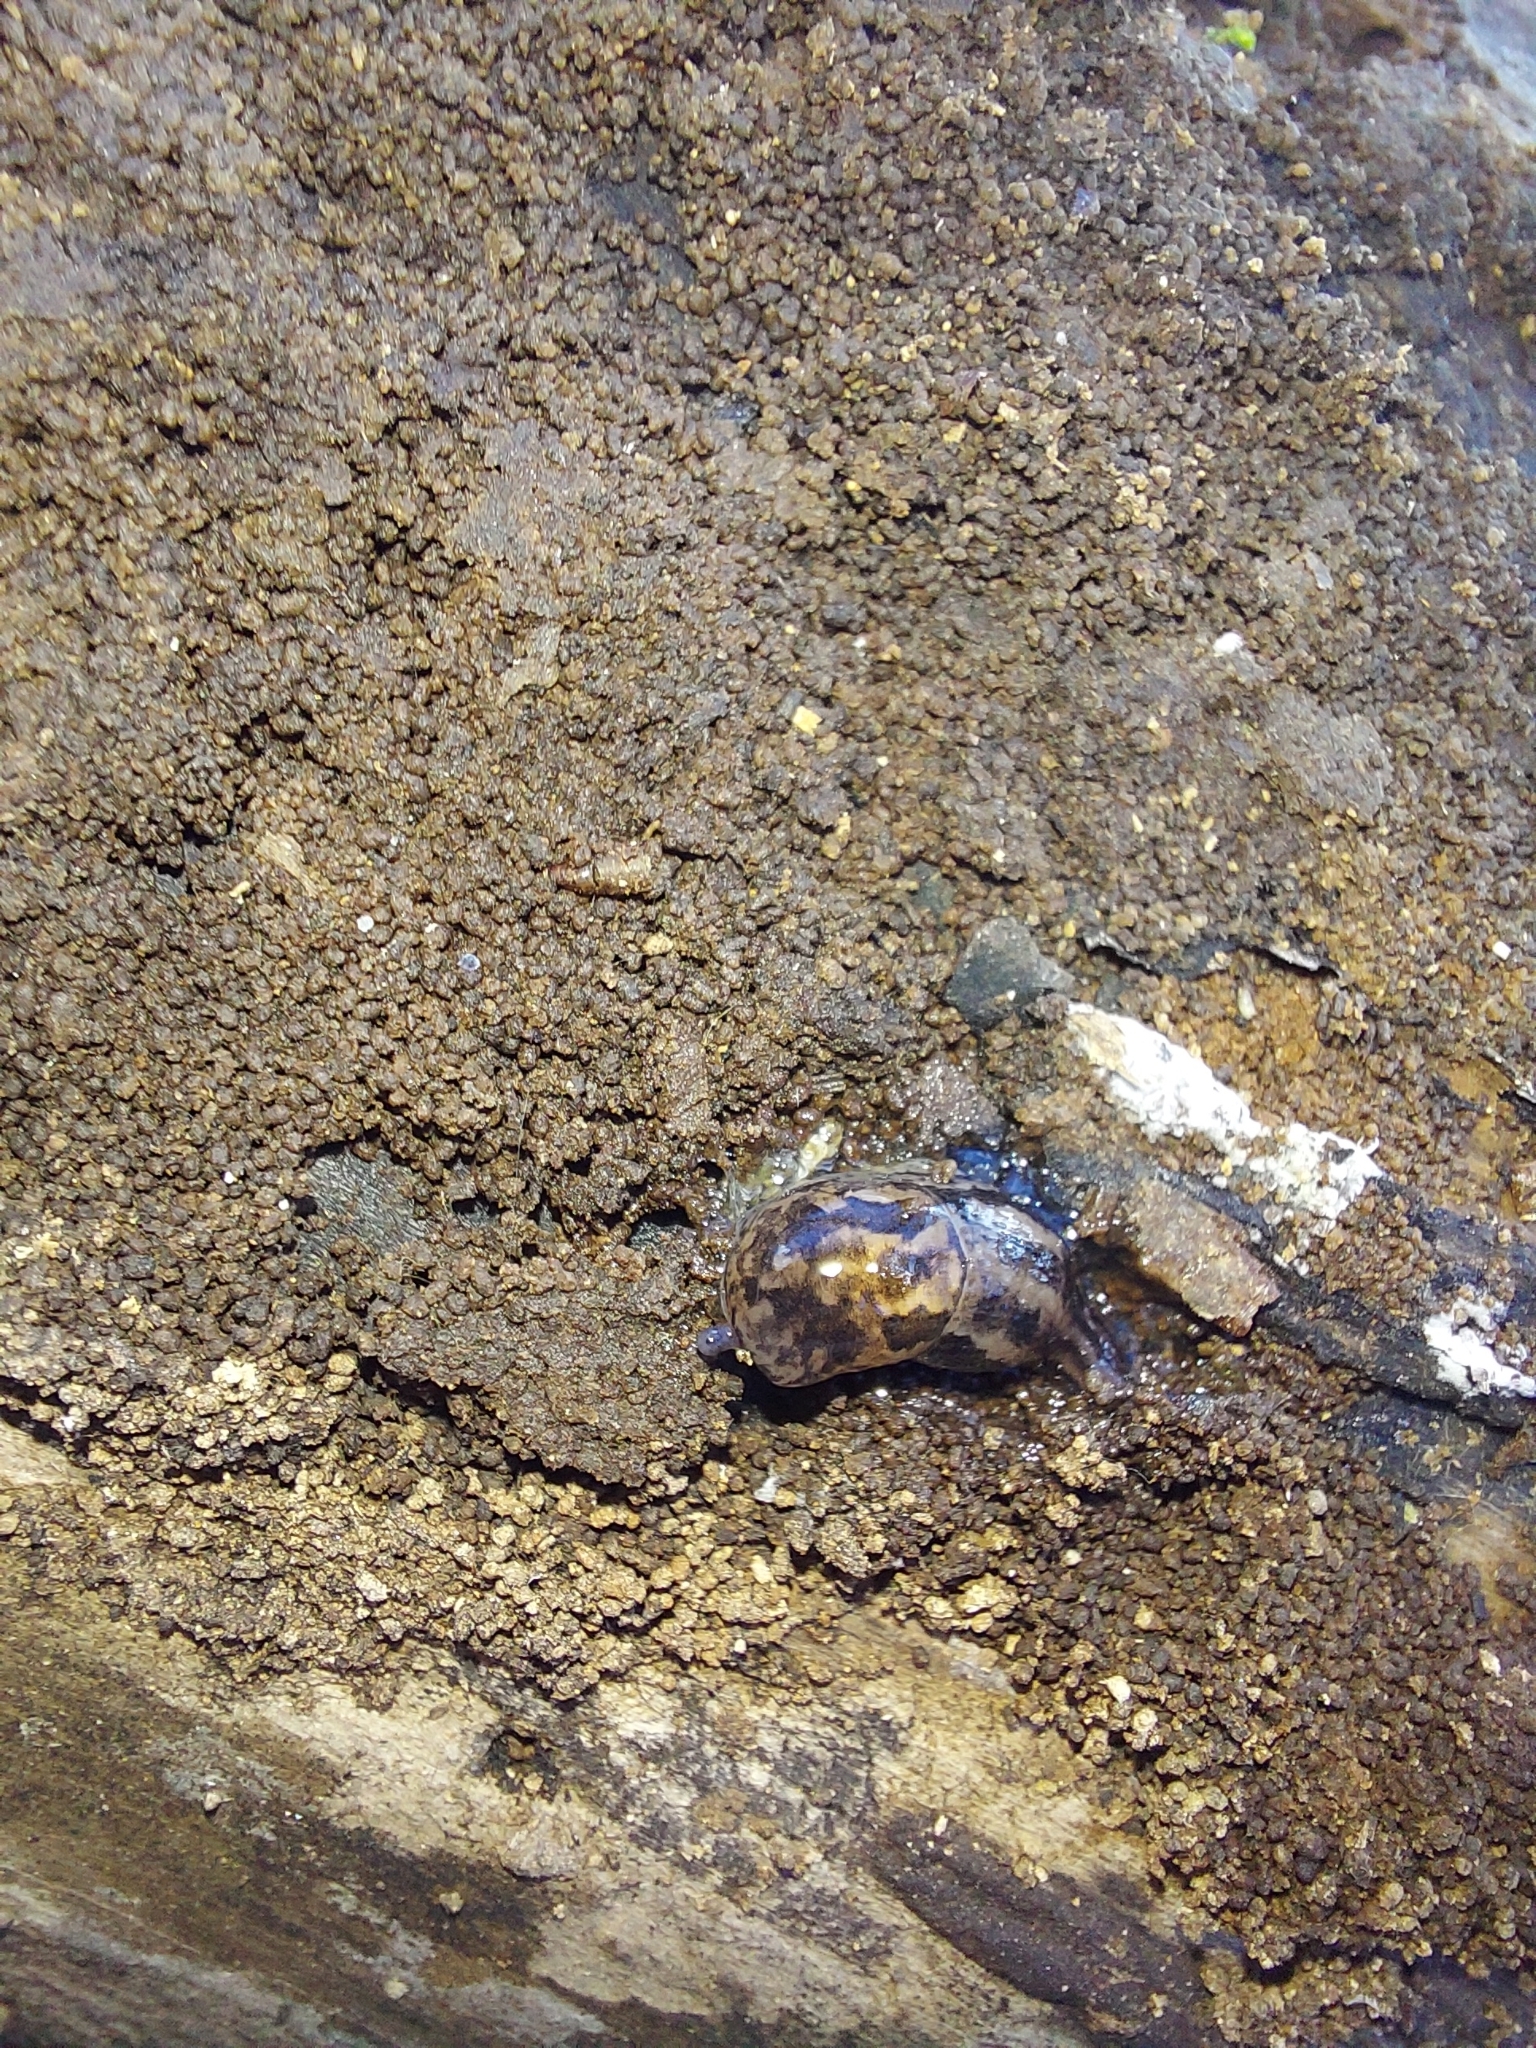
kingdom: Animalia
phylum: Mollusca
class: Gastropoda
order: Stylommatophora
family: Limacidae
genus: Limax
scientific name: Limax maximus
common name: Great grey slug
